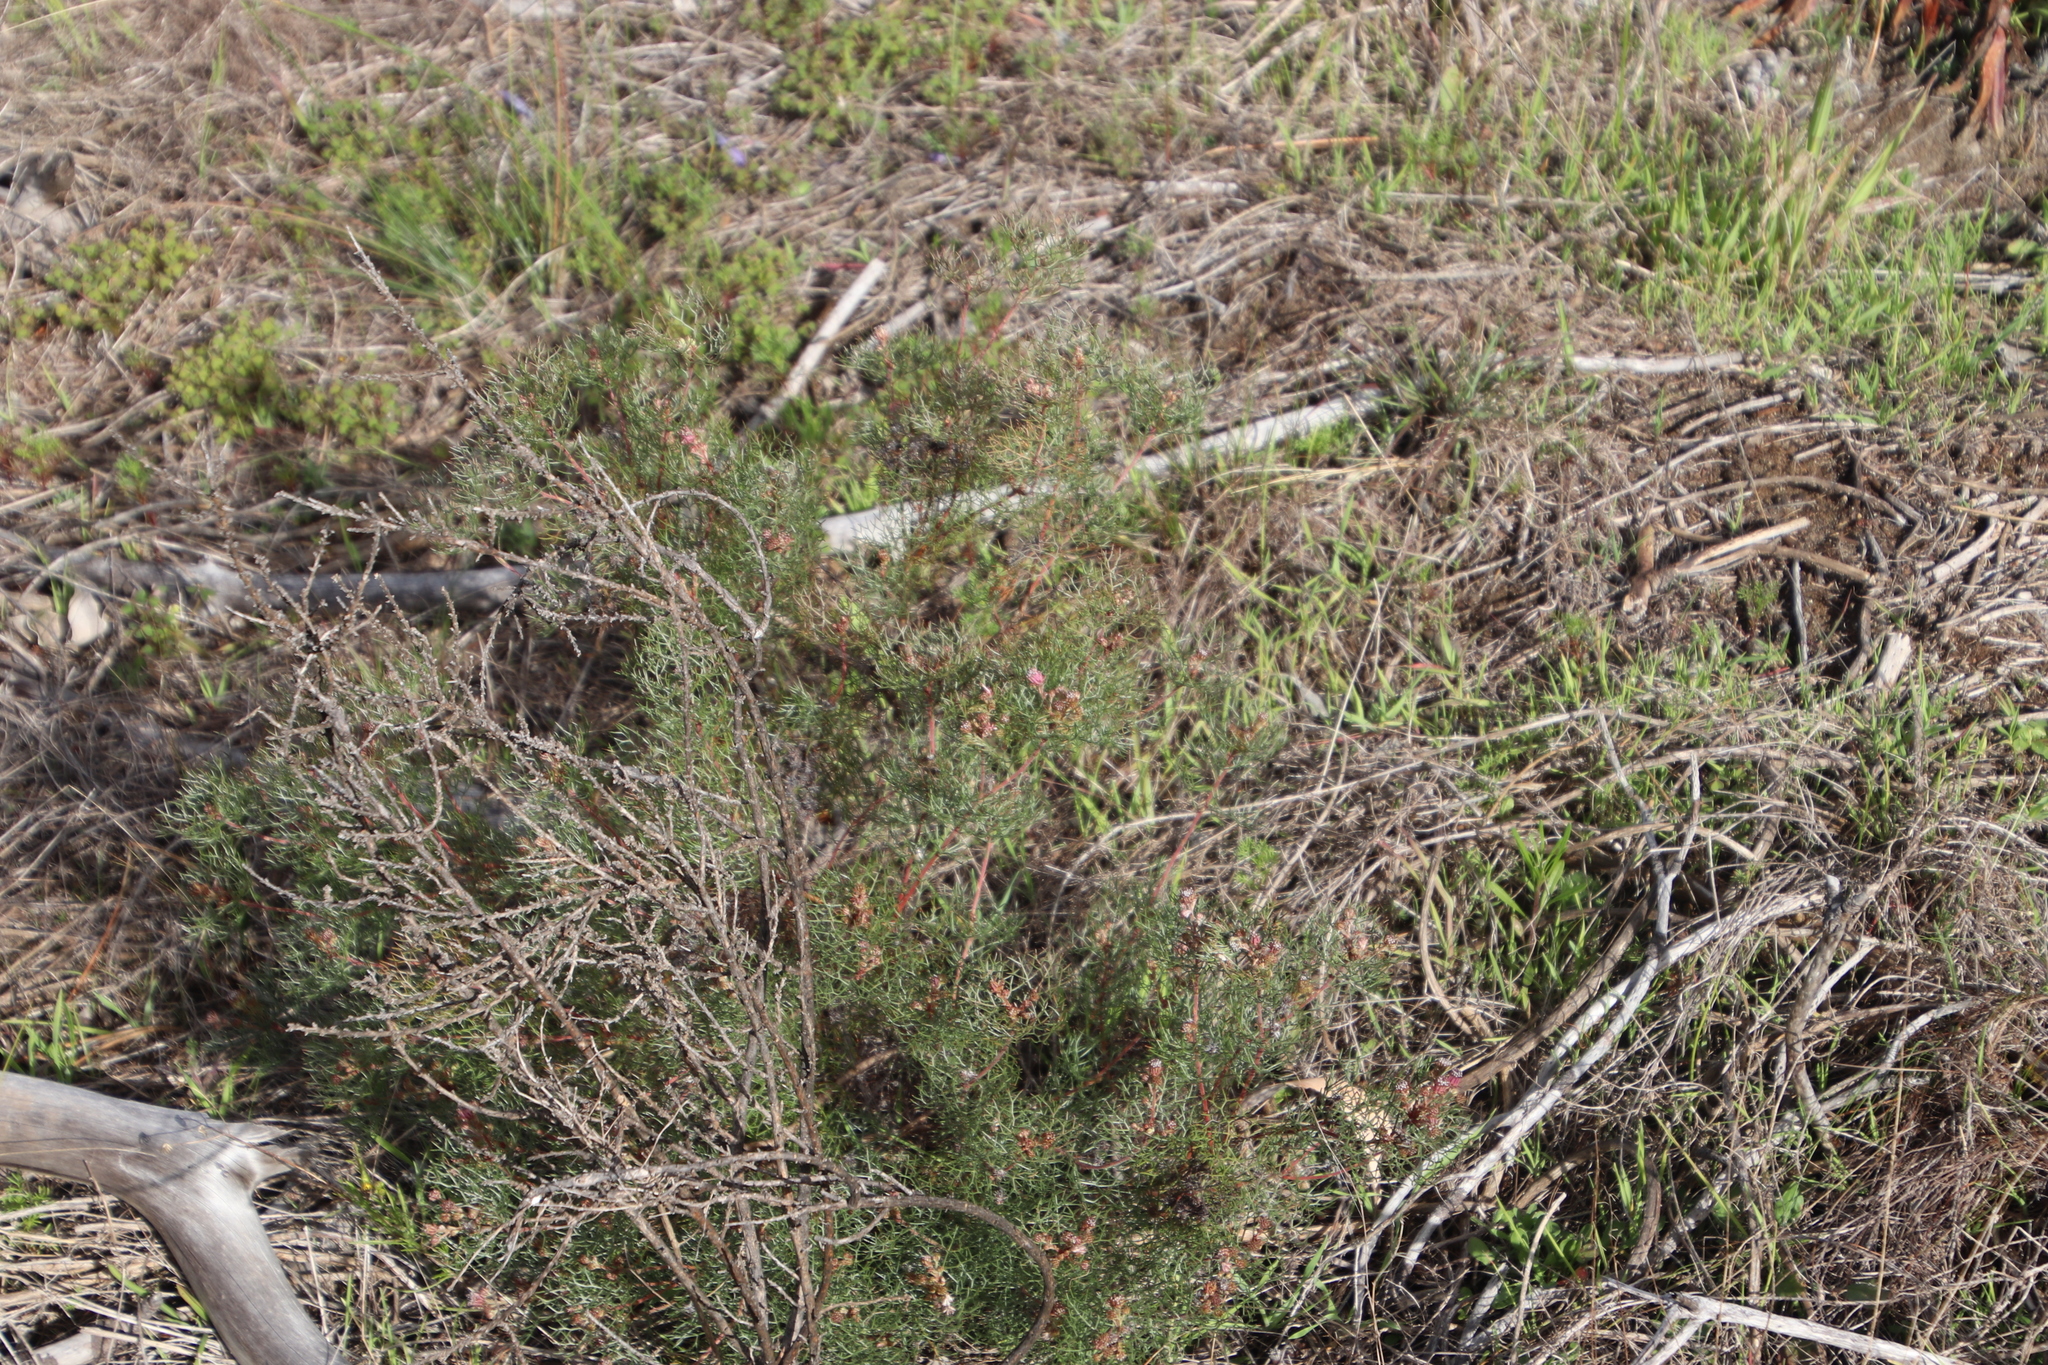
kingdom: Plantae
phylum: Tracheophyta
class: Magnoliopsida
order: Proteales
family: Proteaceae
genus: Serruria
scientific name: Serruria fasciflora
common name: Common pin spiderhead
